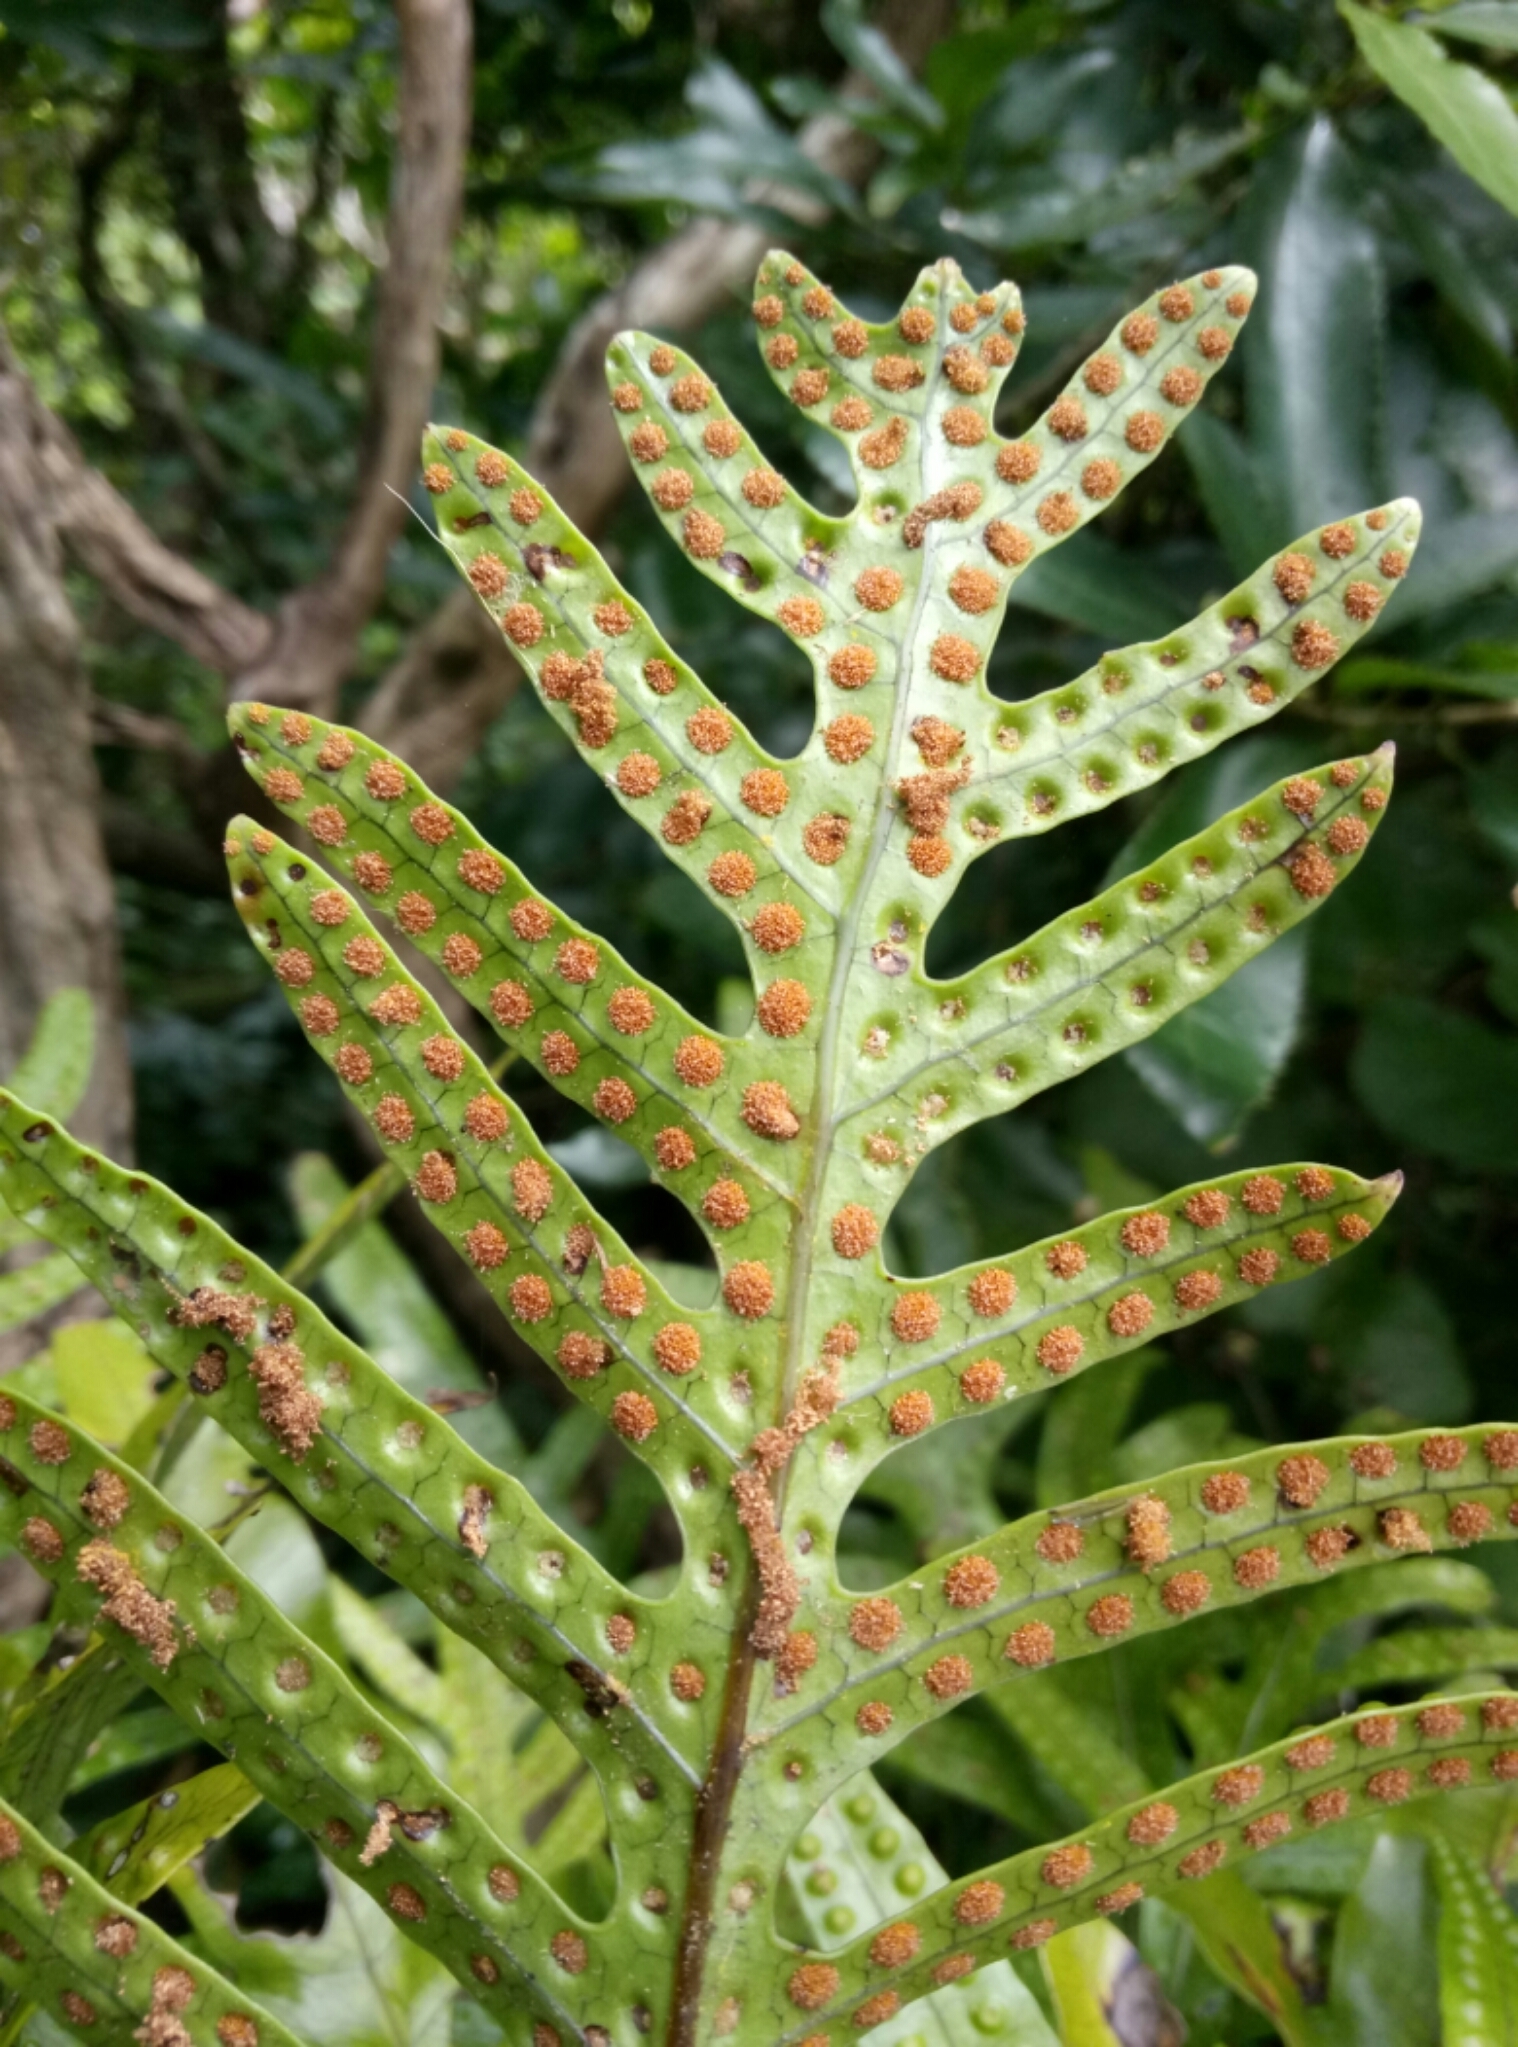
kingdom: Plantae
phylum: Tracheophyta
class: Polypodiopsida
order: Polypodiales
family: Polypodiaceae
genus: Lecanopteris
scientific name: Lecanopteris pustulata
